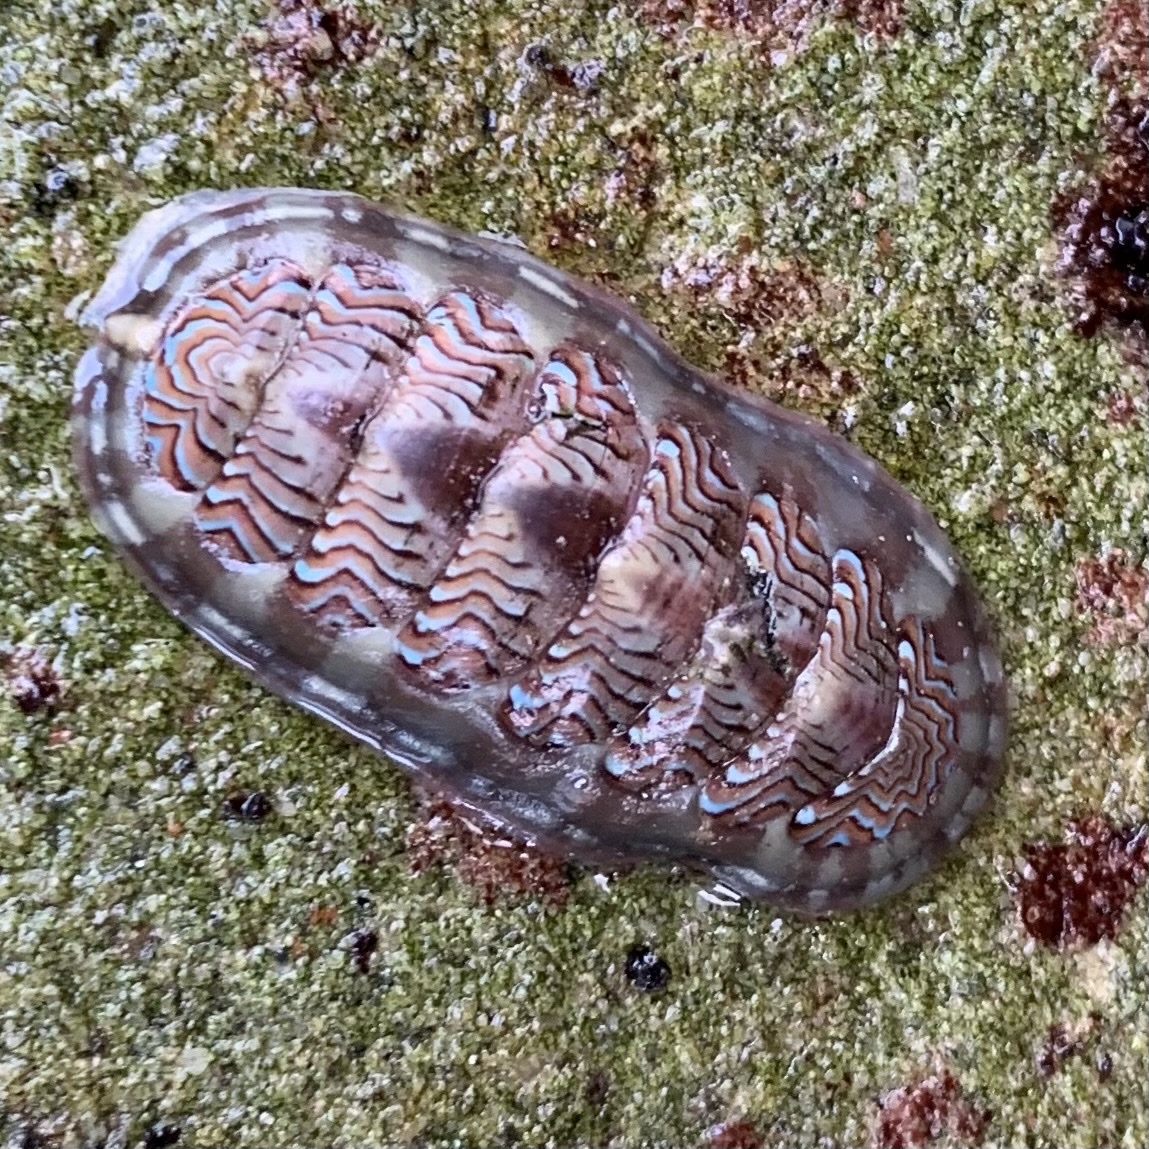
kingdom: Animalia
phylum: Mollusca
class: Polyplacophora
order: Chitonida
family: Tonicellidae
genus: Tonicella
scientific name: Tonicella lokii
